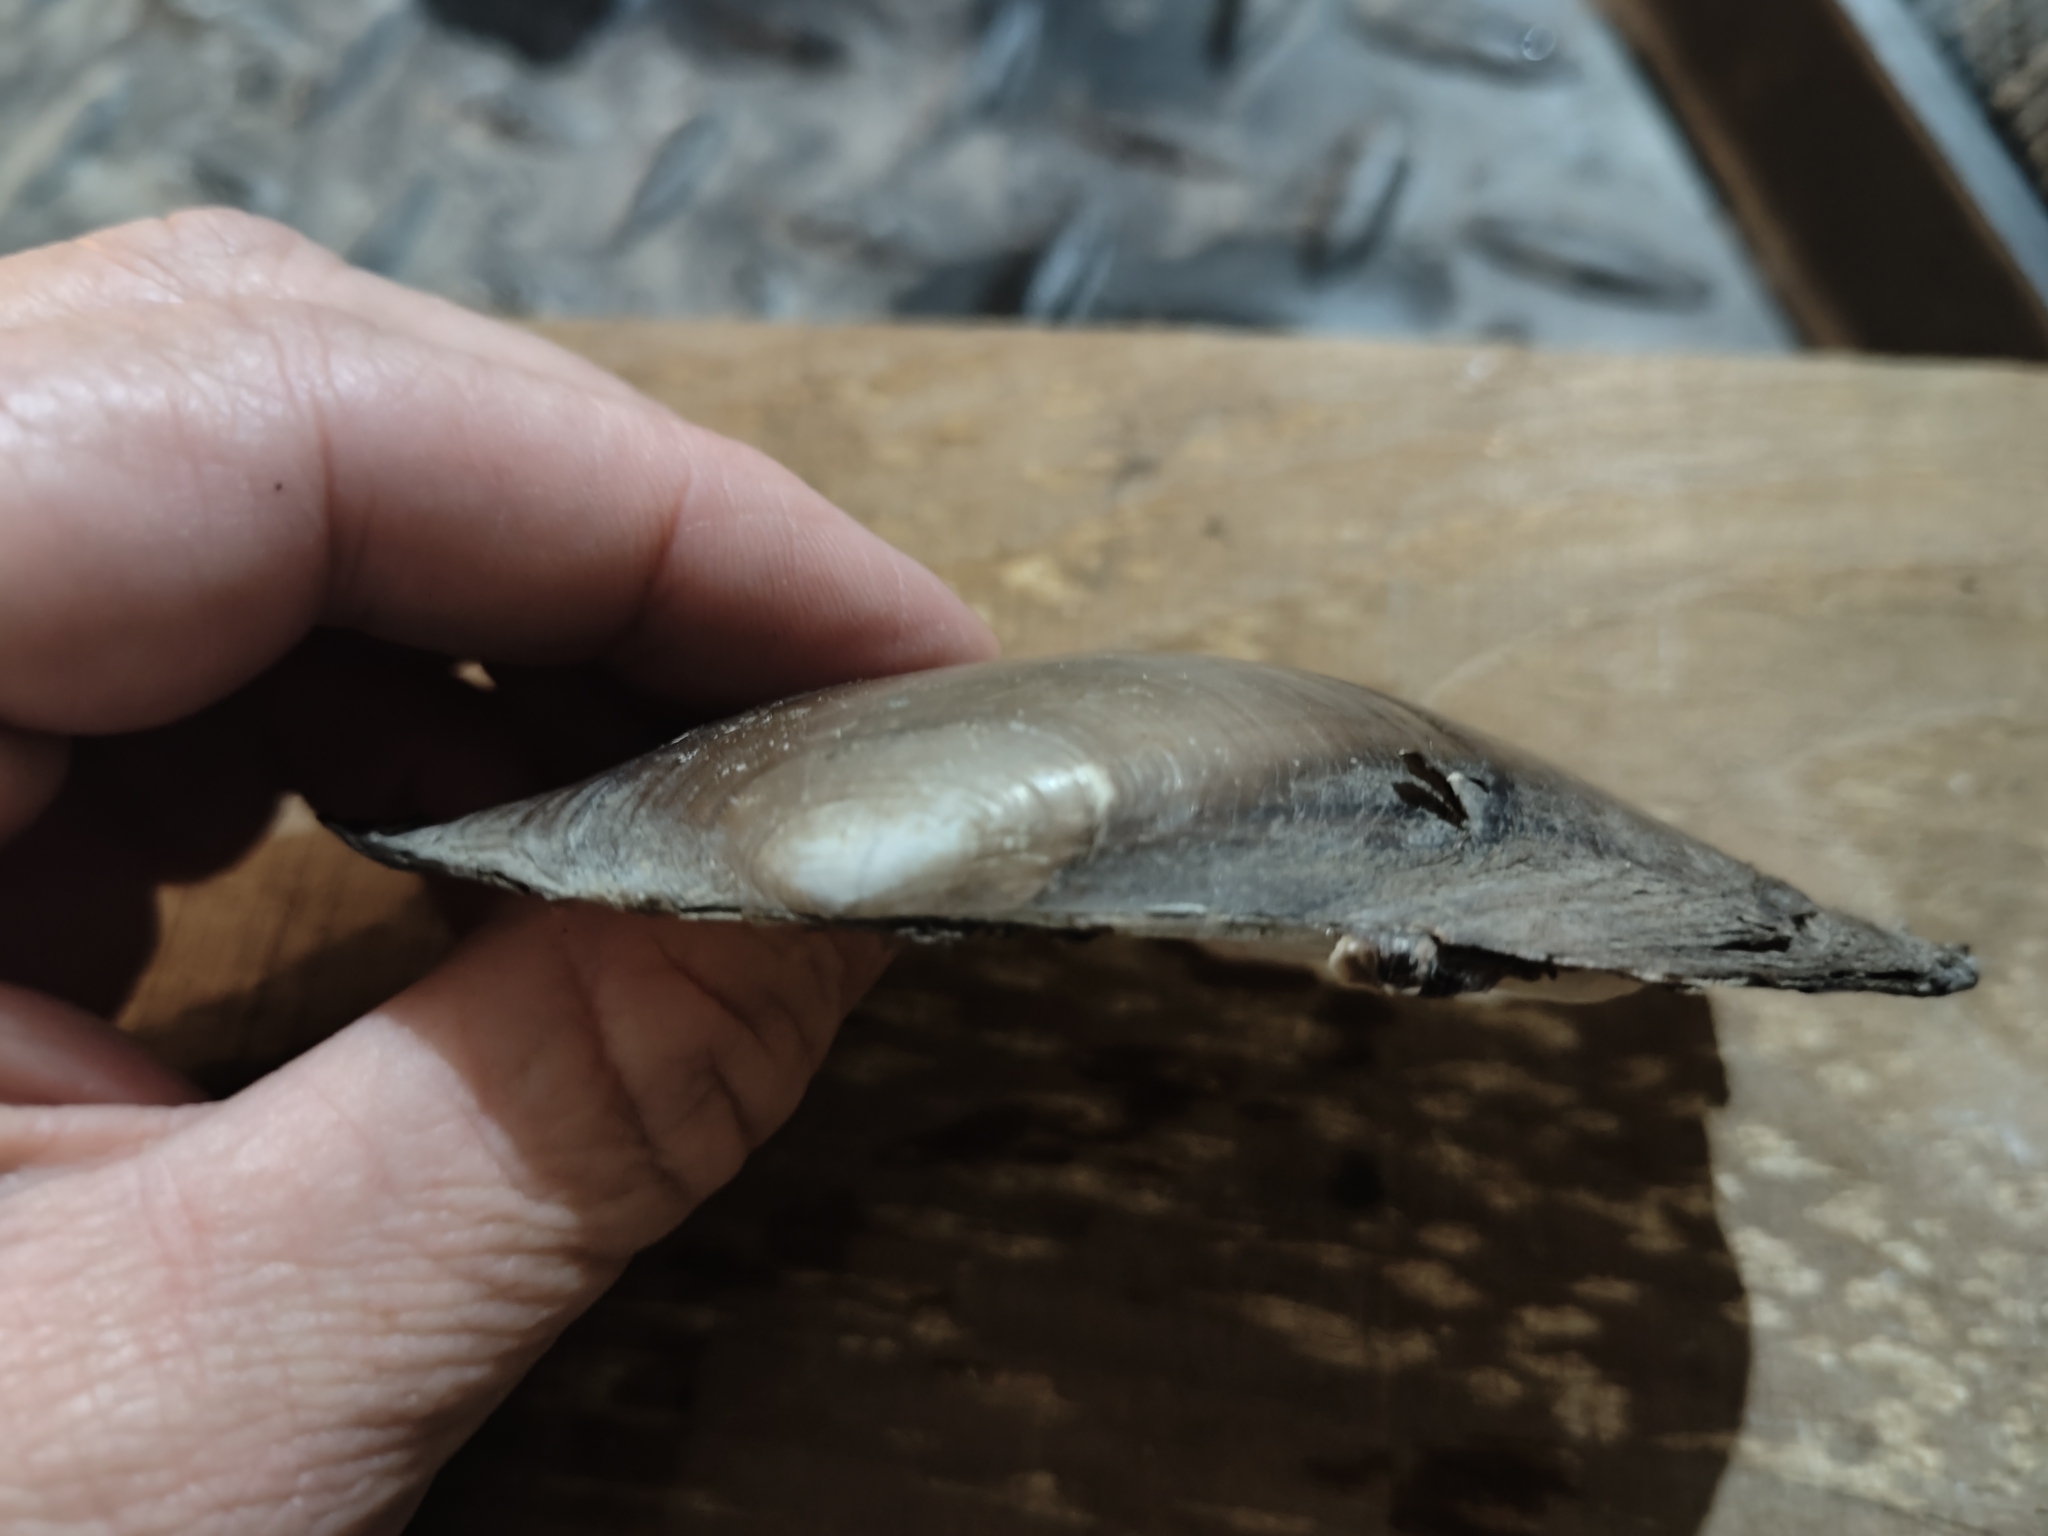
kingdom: Animalia
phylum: Mollusca
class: Bivalvia
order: Unionida
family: Unionidae
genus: Potamilus
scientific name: Potamilus fragilis
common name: Fragile papershell
